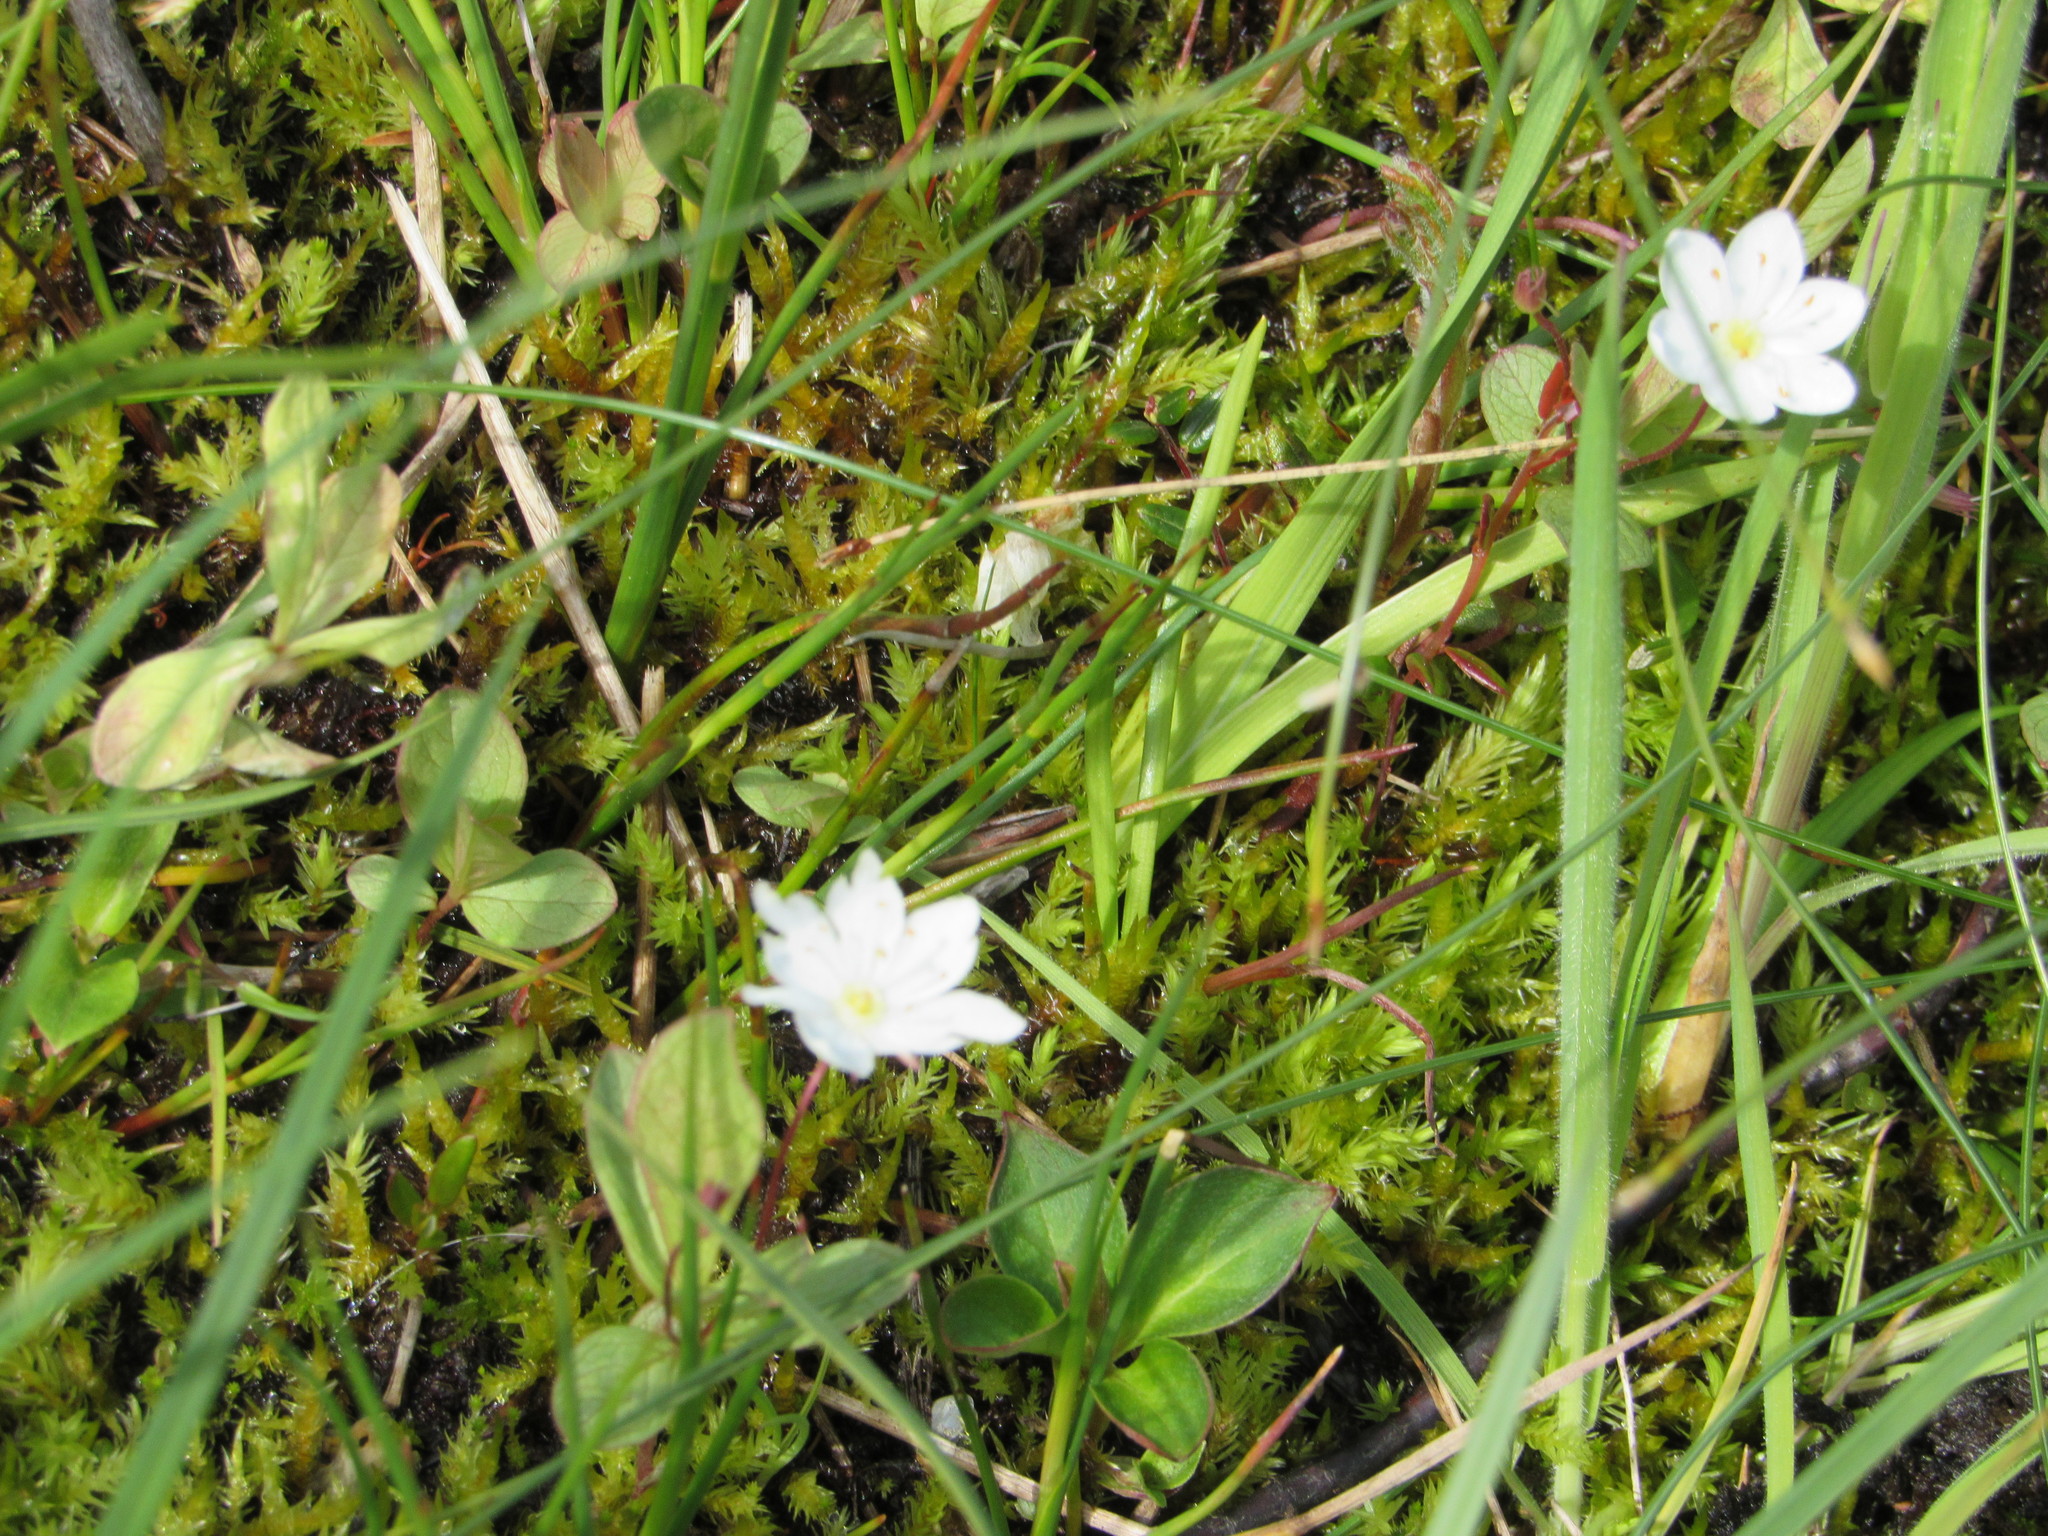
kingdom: Plantae
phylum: Tracheophyta
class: Magnoliopsida
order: Ericales
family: Primulaceae
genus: Lysimachia
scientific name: Lysimachia europaea
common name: Arctic starflower
